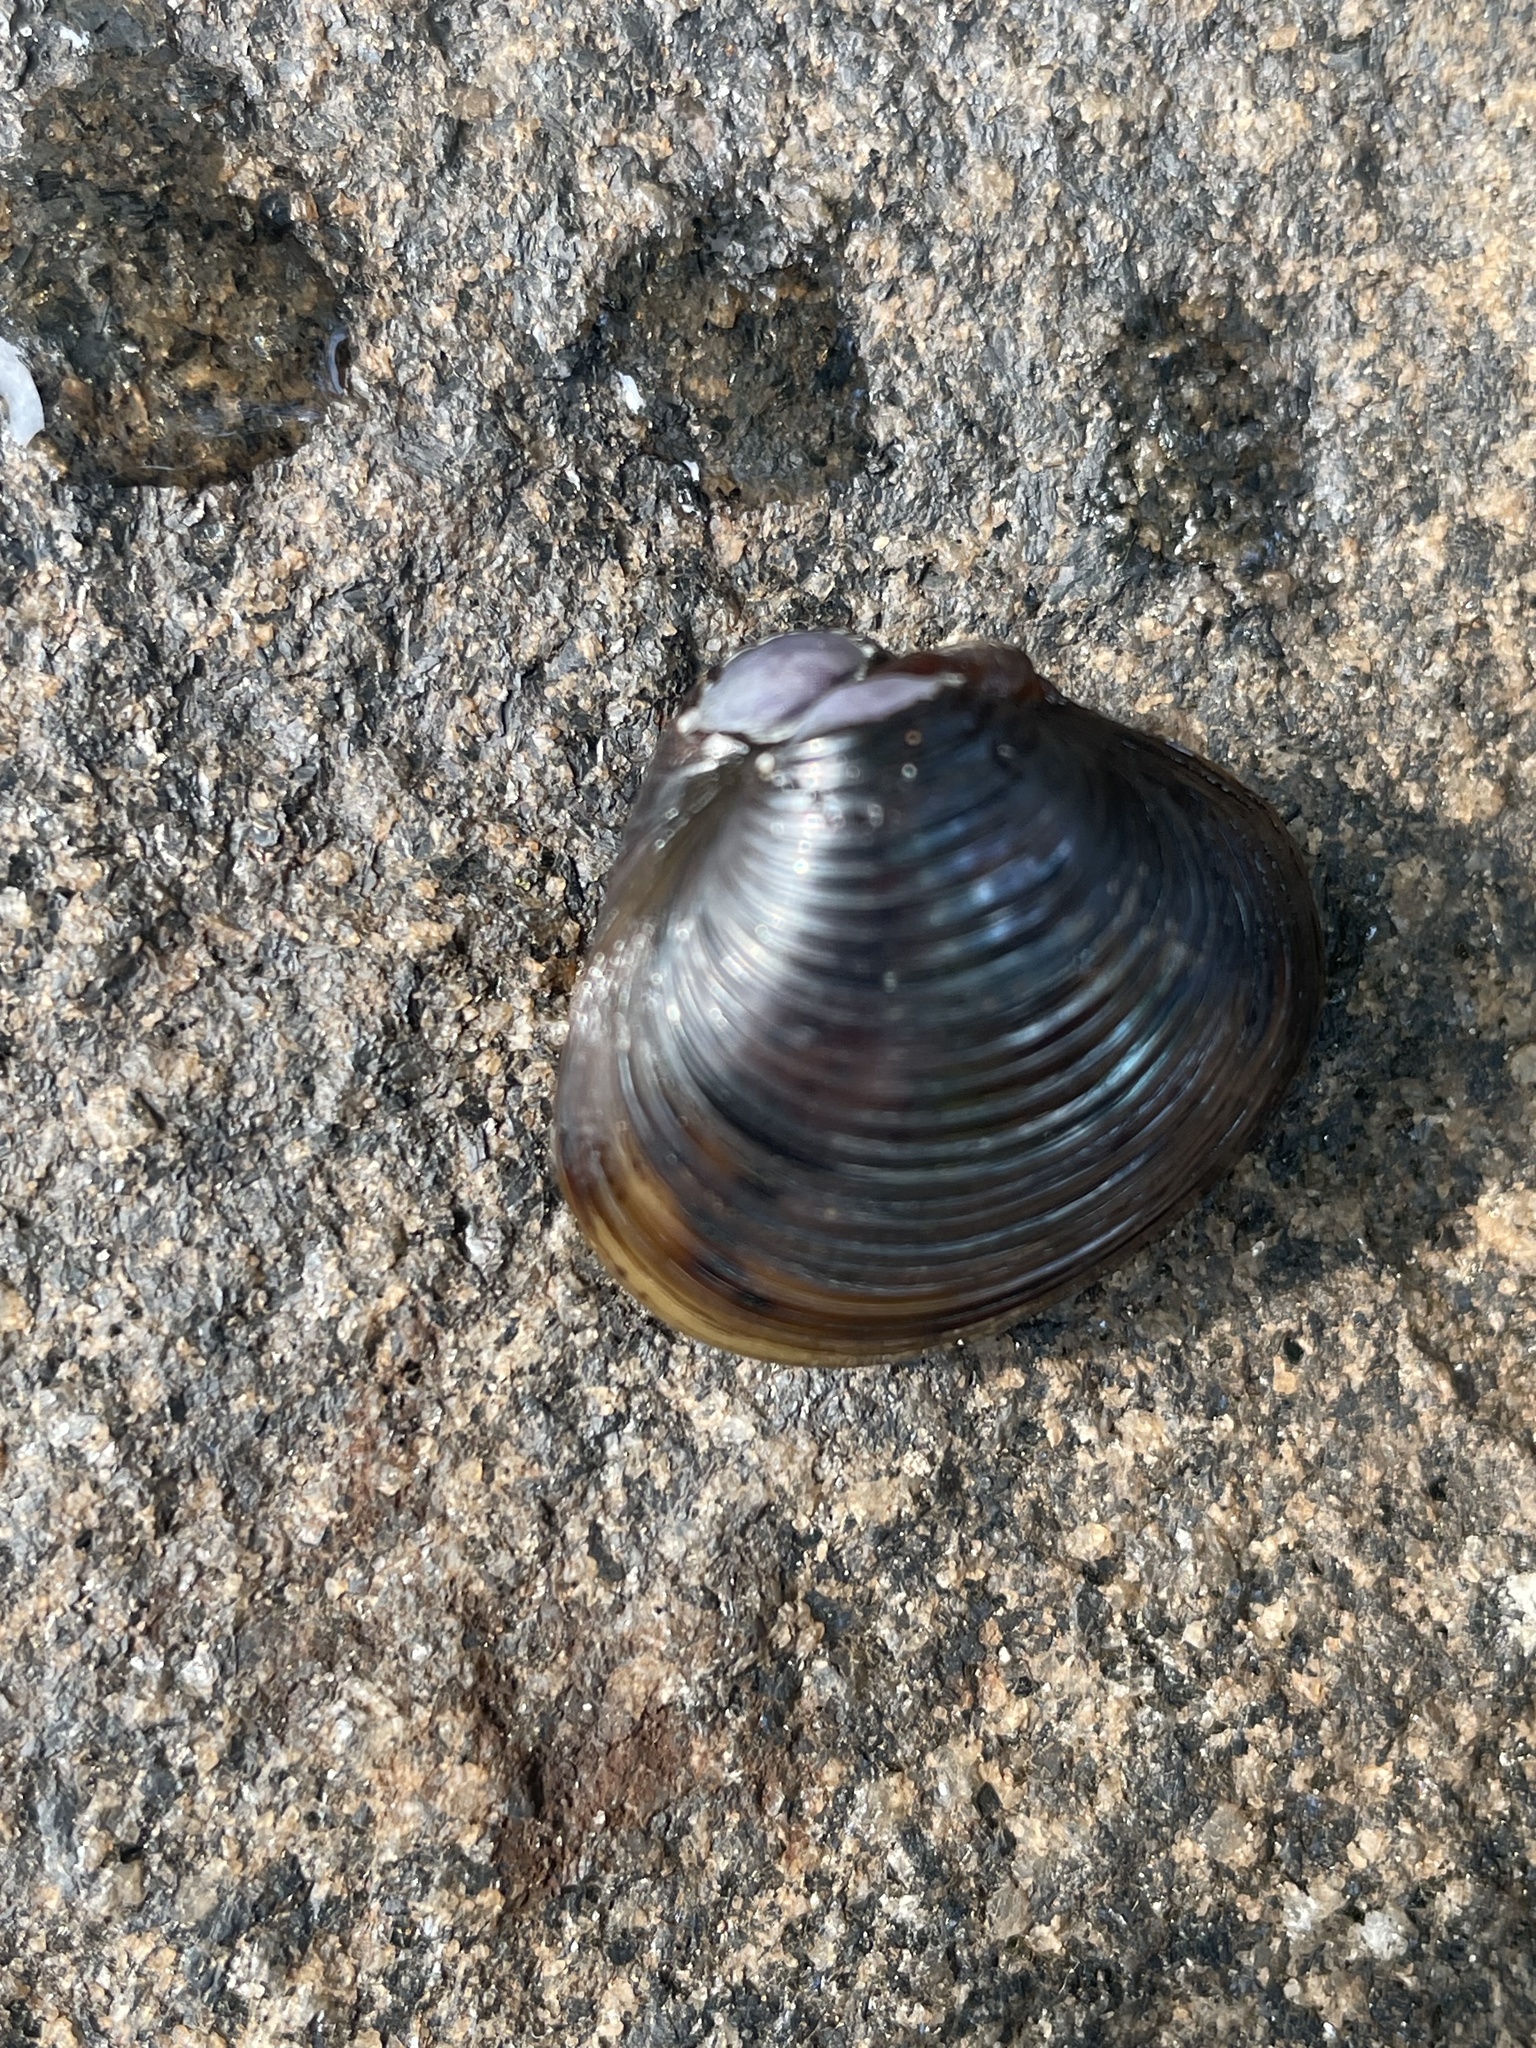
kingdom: Animalia
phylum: Mollusca
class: Bivalvia
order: Venerida
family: Cyrenidae
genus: Corbicula
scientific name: Corbicula fluminea
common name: Asian clam
